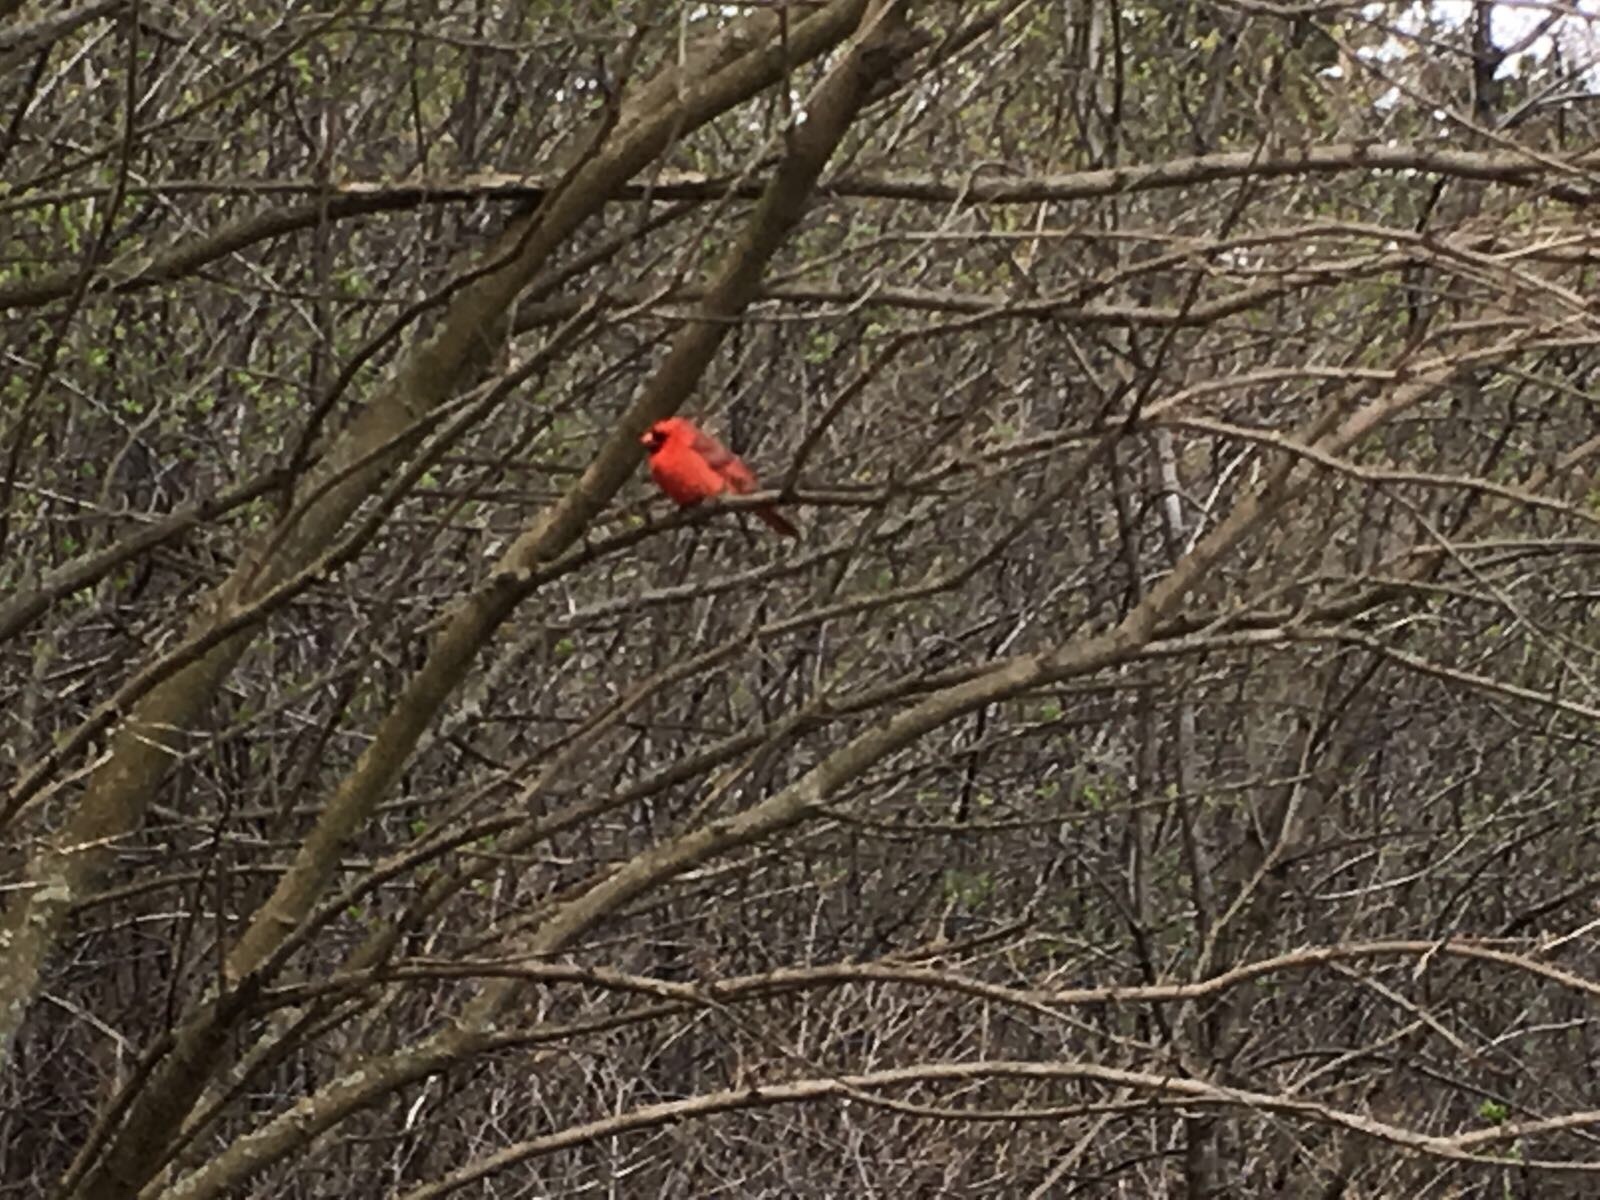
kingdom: Animalia
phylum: Chordata
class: Aves
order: Passeriformes
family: Cardinalidae
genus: Cardinalis
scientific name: Cardinalis cardinalis
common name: Northern cardinal
